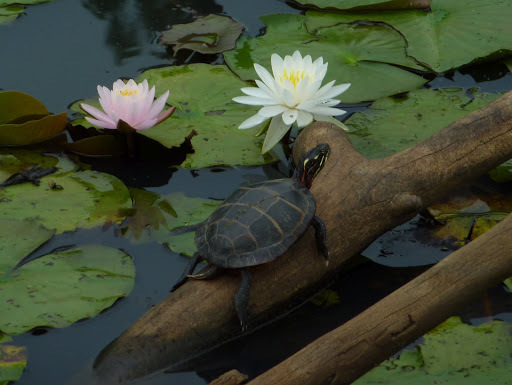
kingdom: Animalia
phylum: Chordata
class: Testudines
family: Emydidae
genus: Chrysemys
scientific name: Chrysemys picta
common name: Painted turtle
